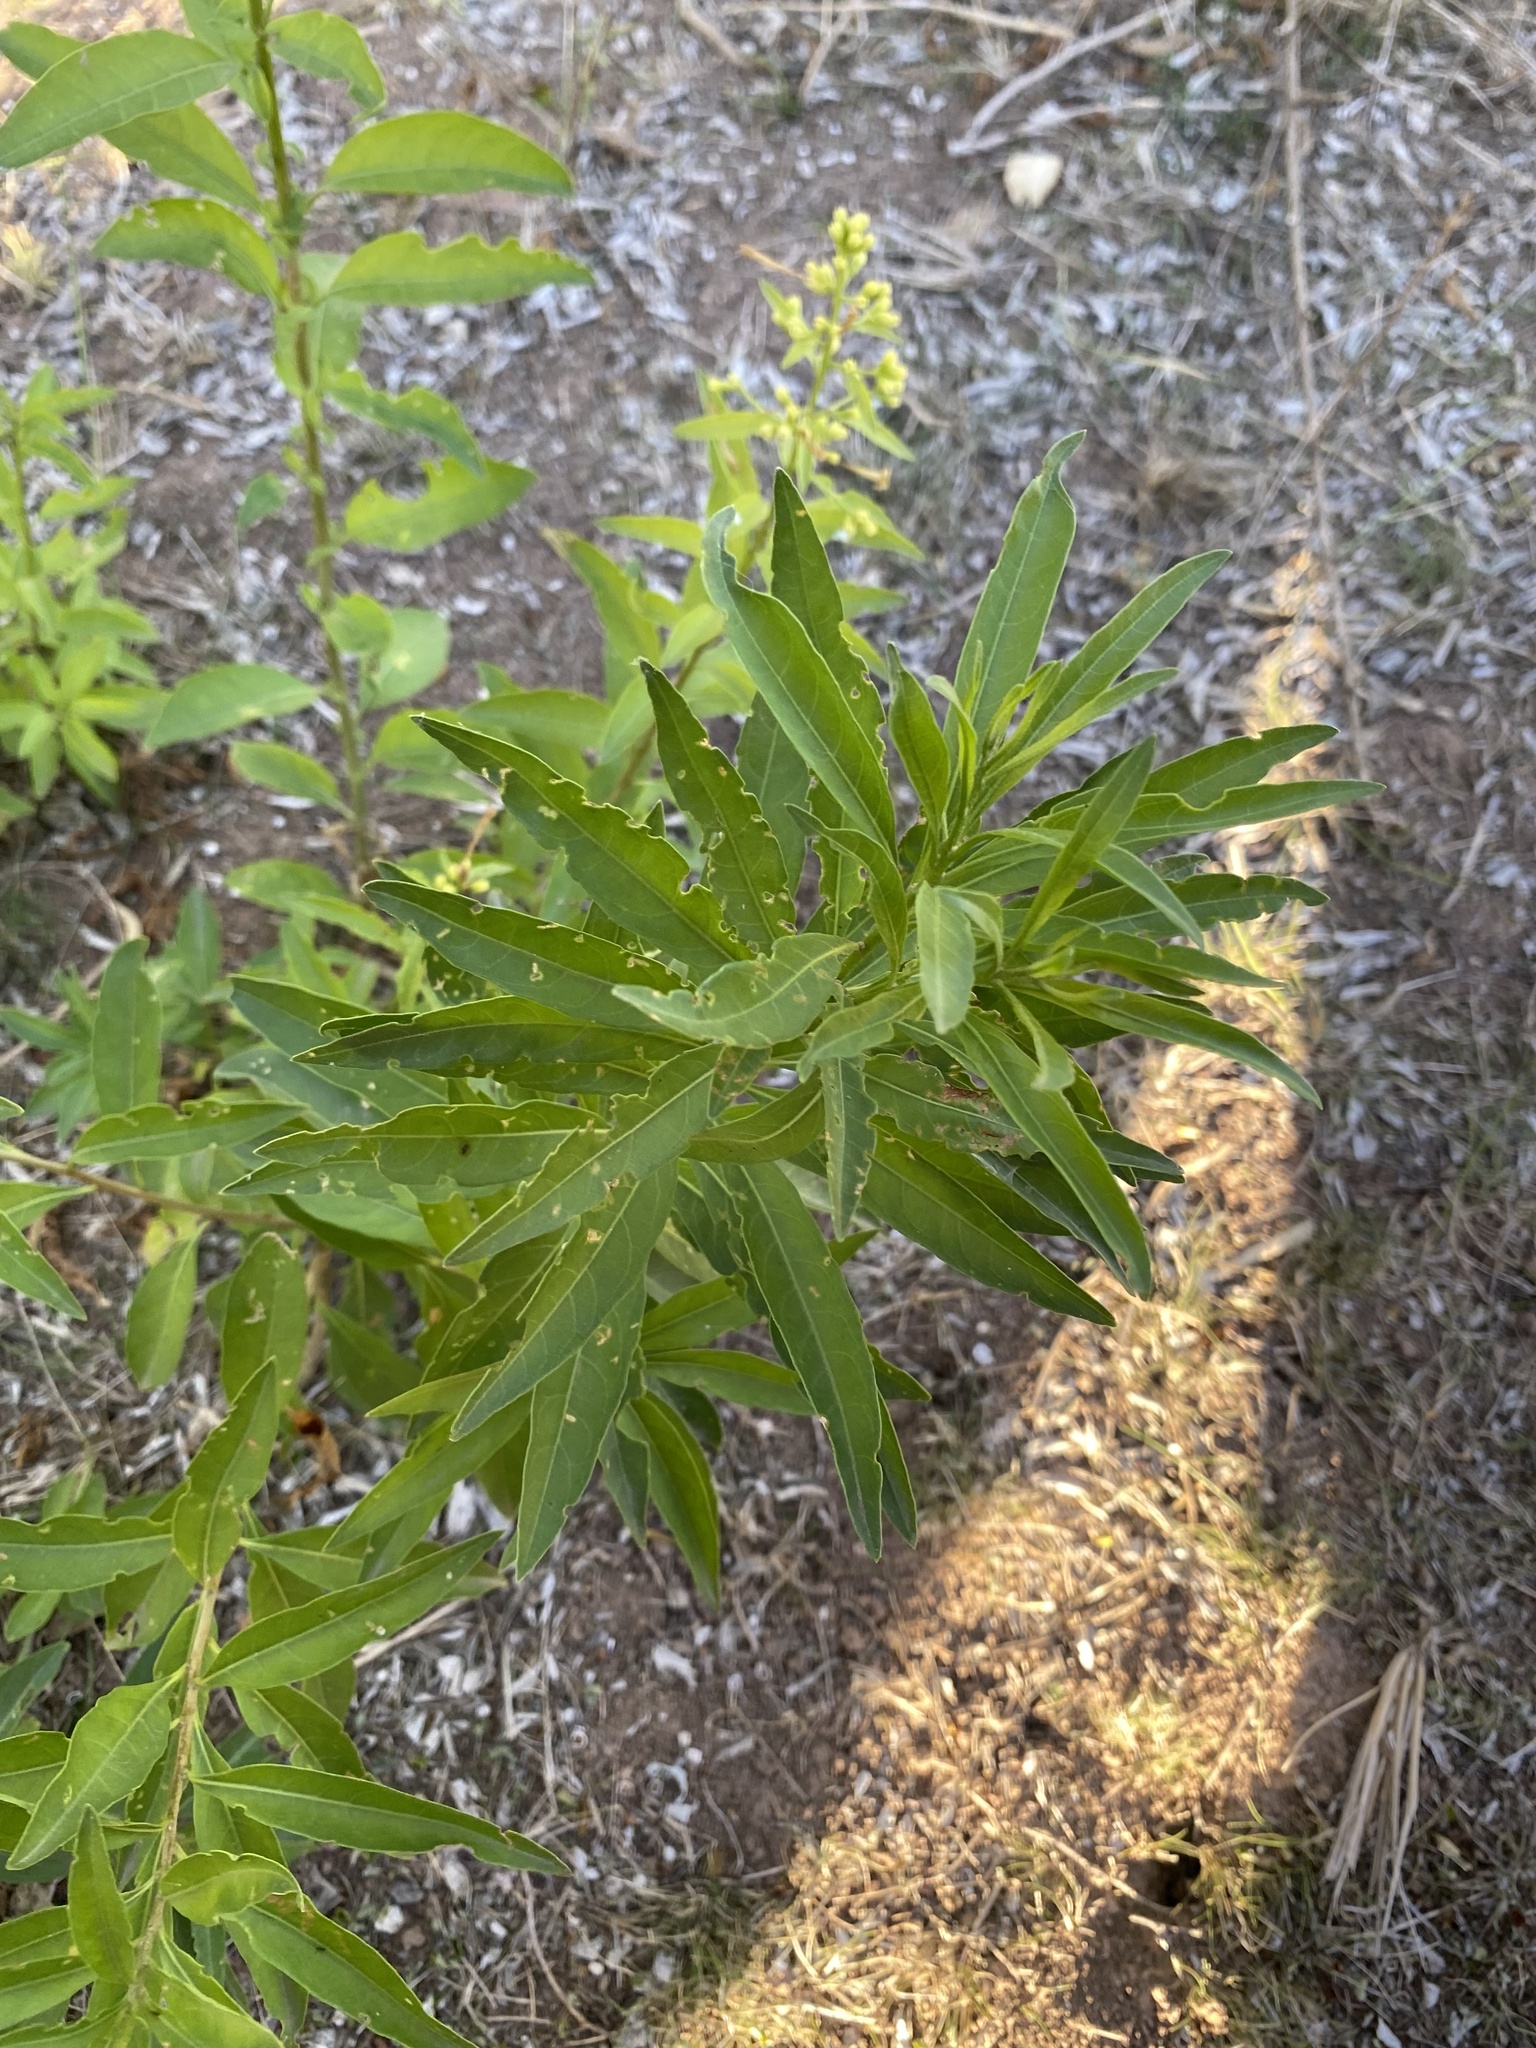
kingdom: Plantae
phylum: Tracheophyta
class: Magnoliopsida
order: Solanales
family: Solanaceae
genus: Cestrum
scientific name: Cestrum parqui
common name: Chilean cestrum
